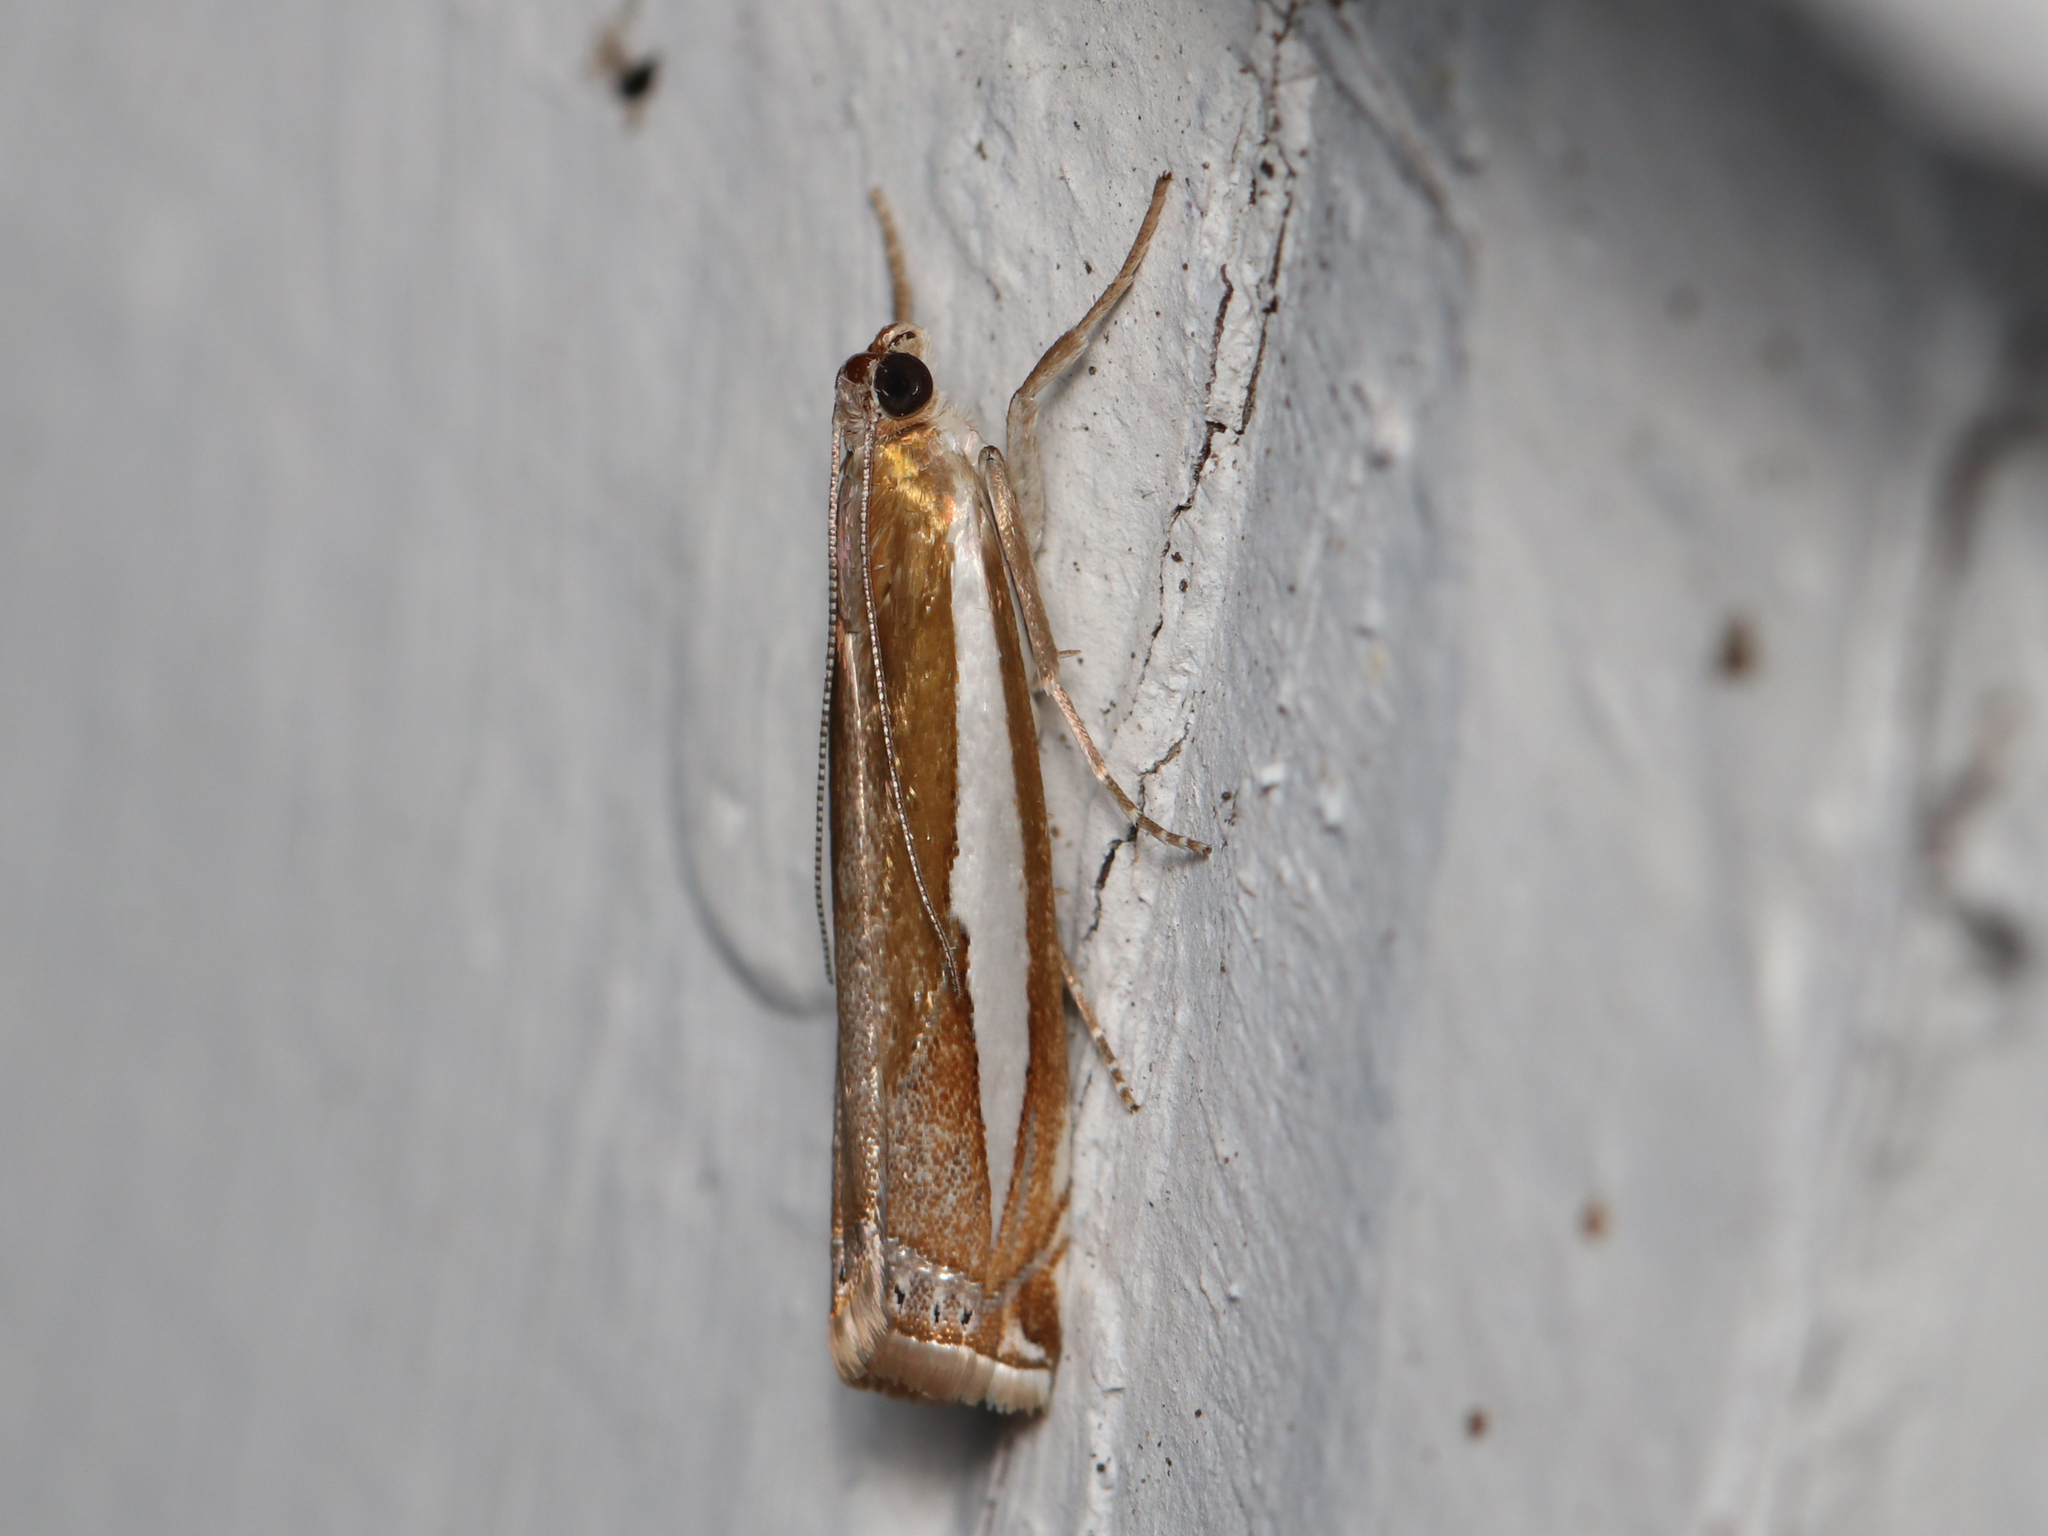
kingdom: Animalia
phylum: Arthropoda
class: Insecta
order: Lepidoptera
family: Crambidae
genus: Crambus
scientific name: Crambus praefectellus
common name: Common grass-veneer
